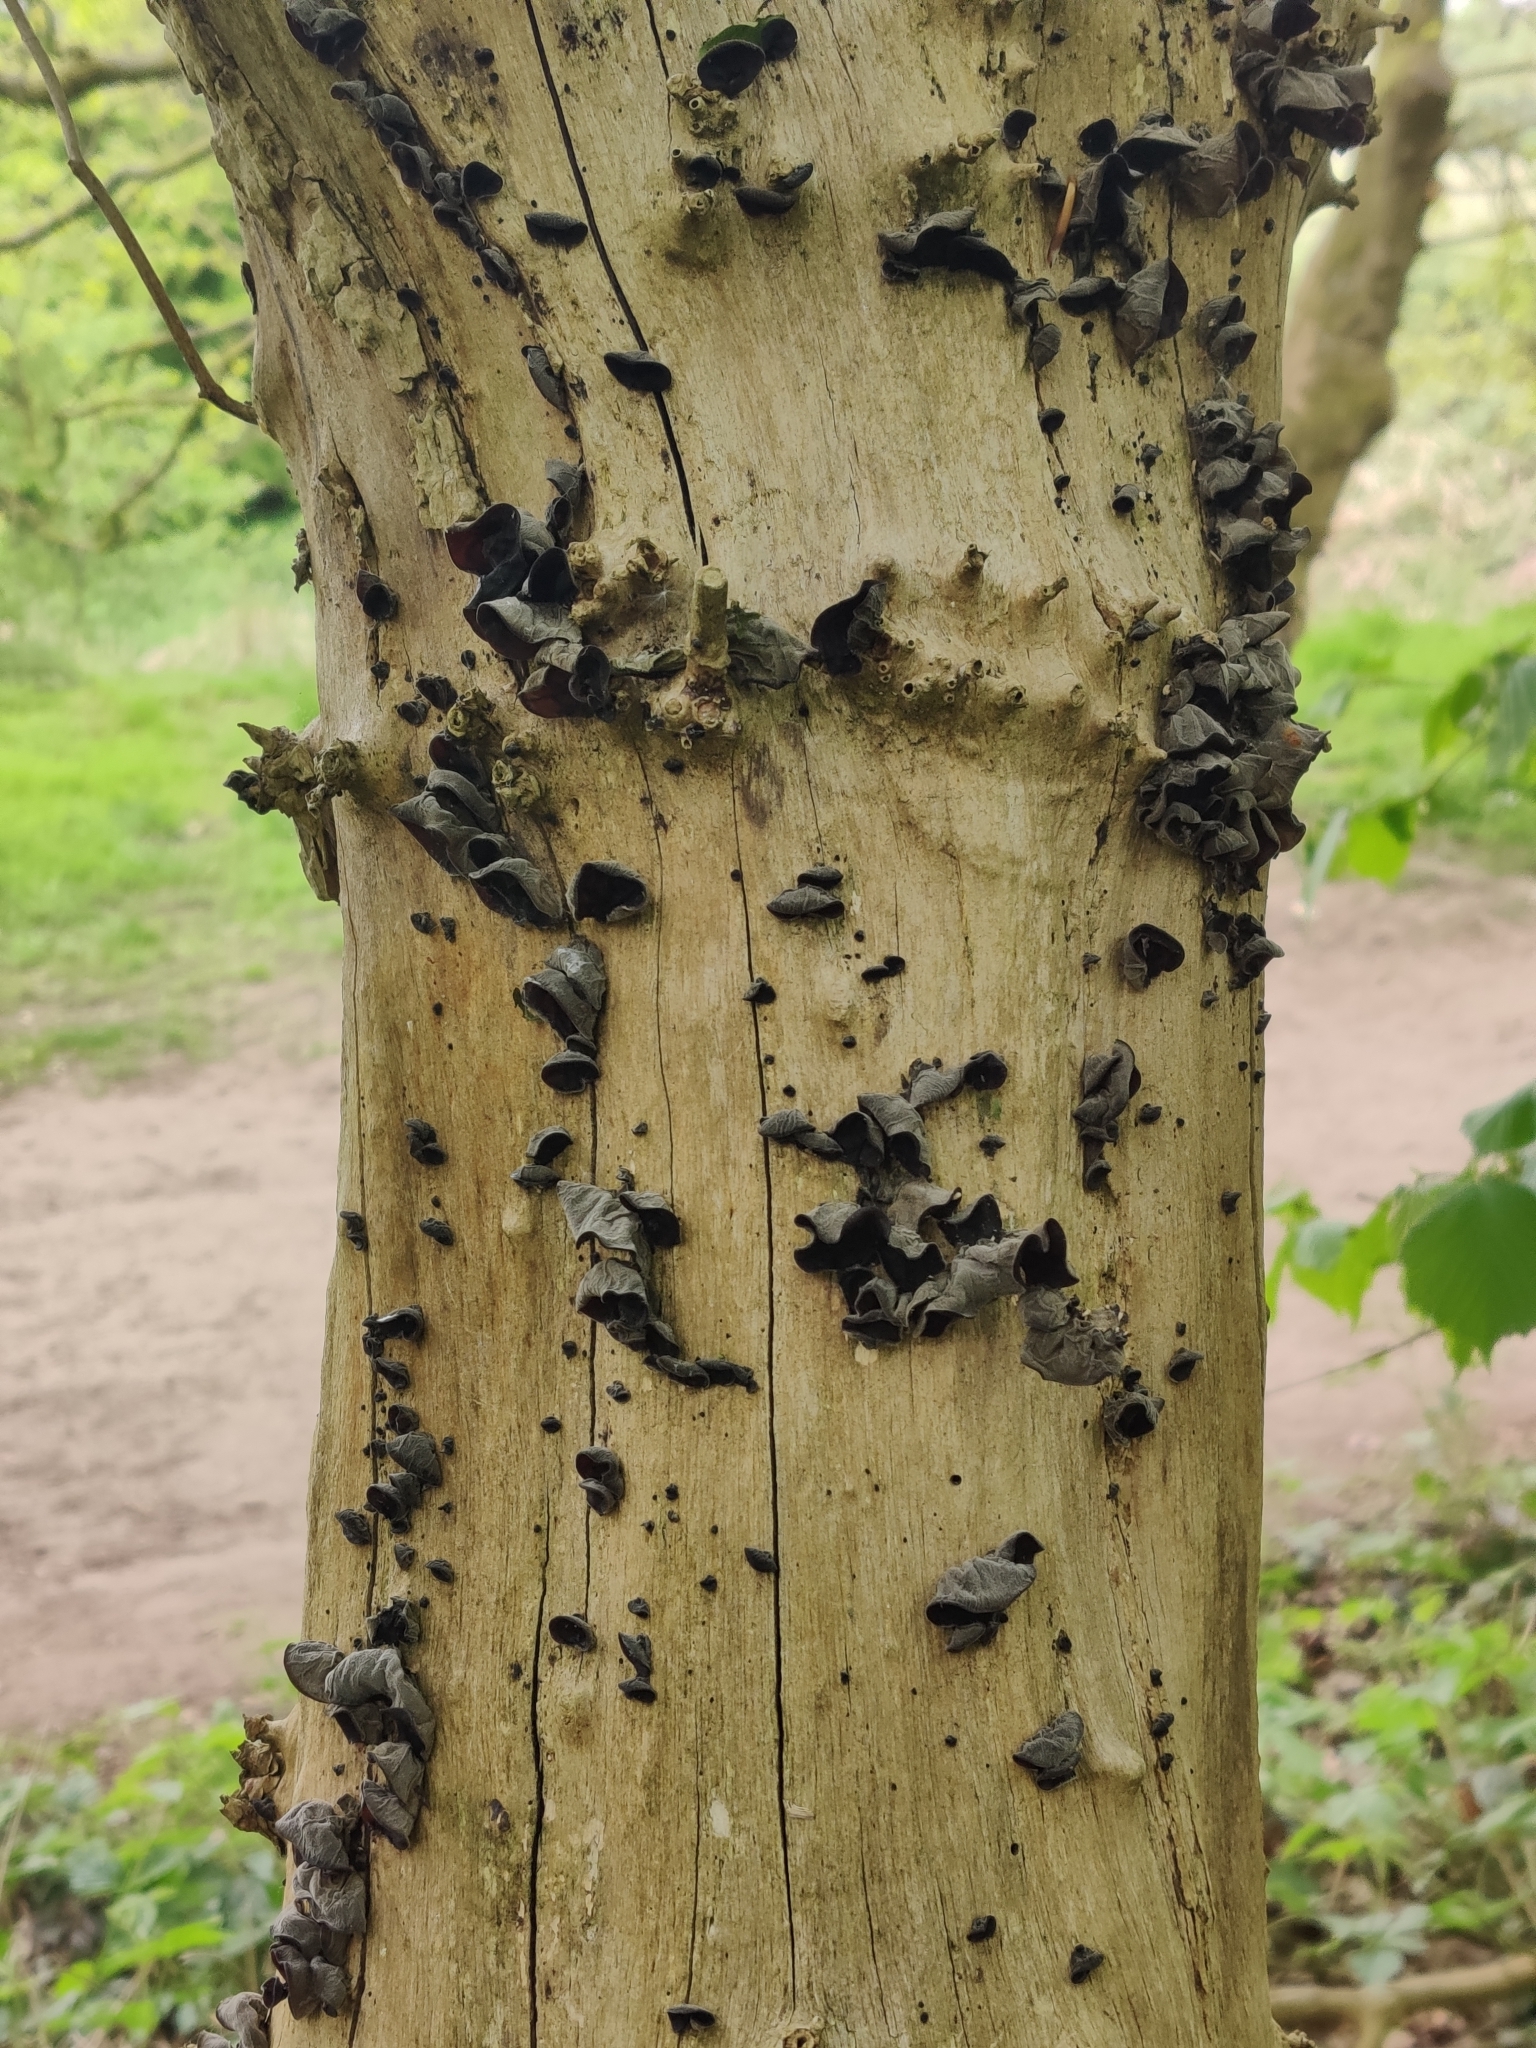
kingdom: Fungi
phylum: Basidiomycota
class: Agaricomycetes
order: Auriculariales
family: Auriculariaceae
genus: Auricularia
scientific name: Auricularia auricula-judae
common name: Jelly ear
